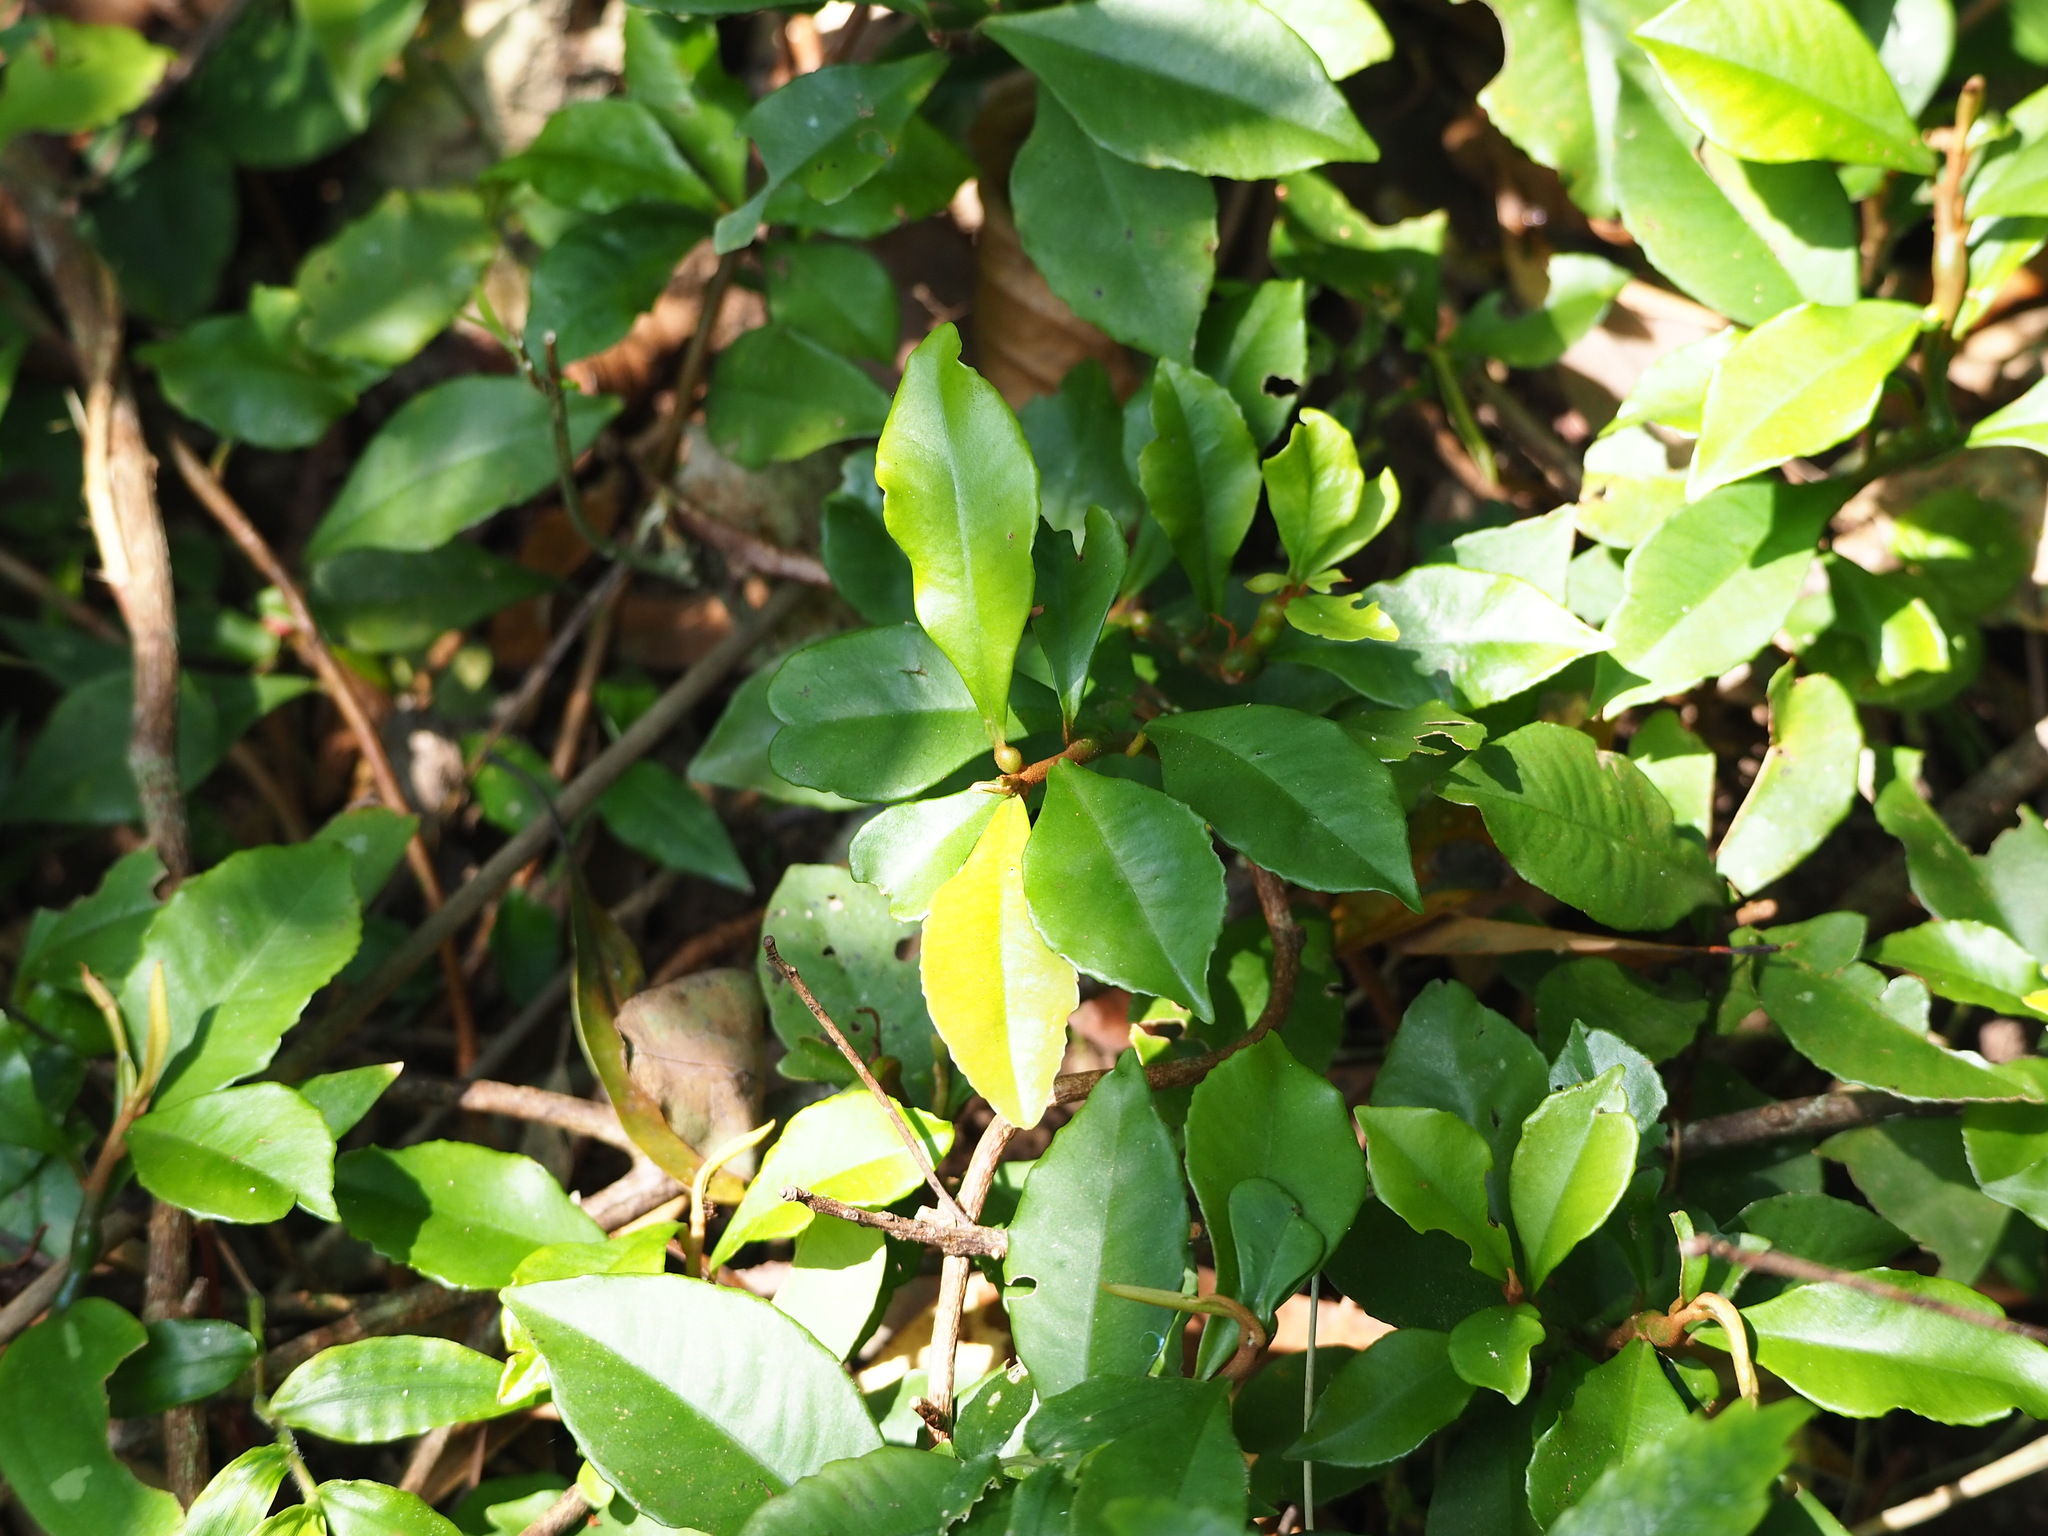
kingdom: Plantae
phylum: Tracheophyta
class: Magnoliopsida
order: Ericales
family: Primulaceae
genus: Ardisia
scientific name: Ardisia cymosa
